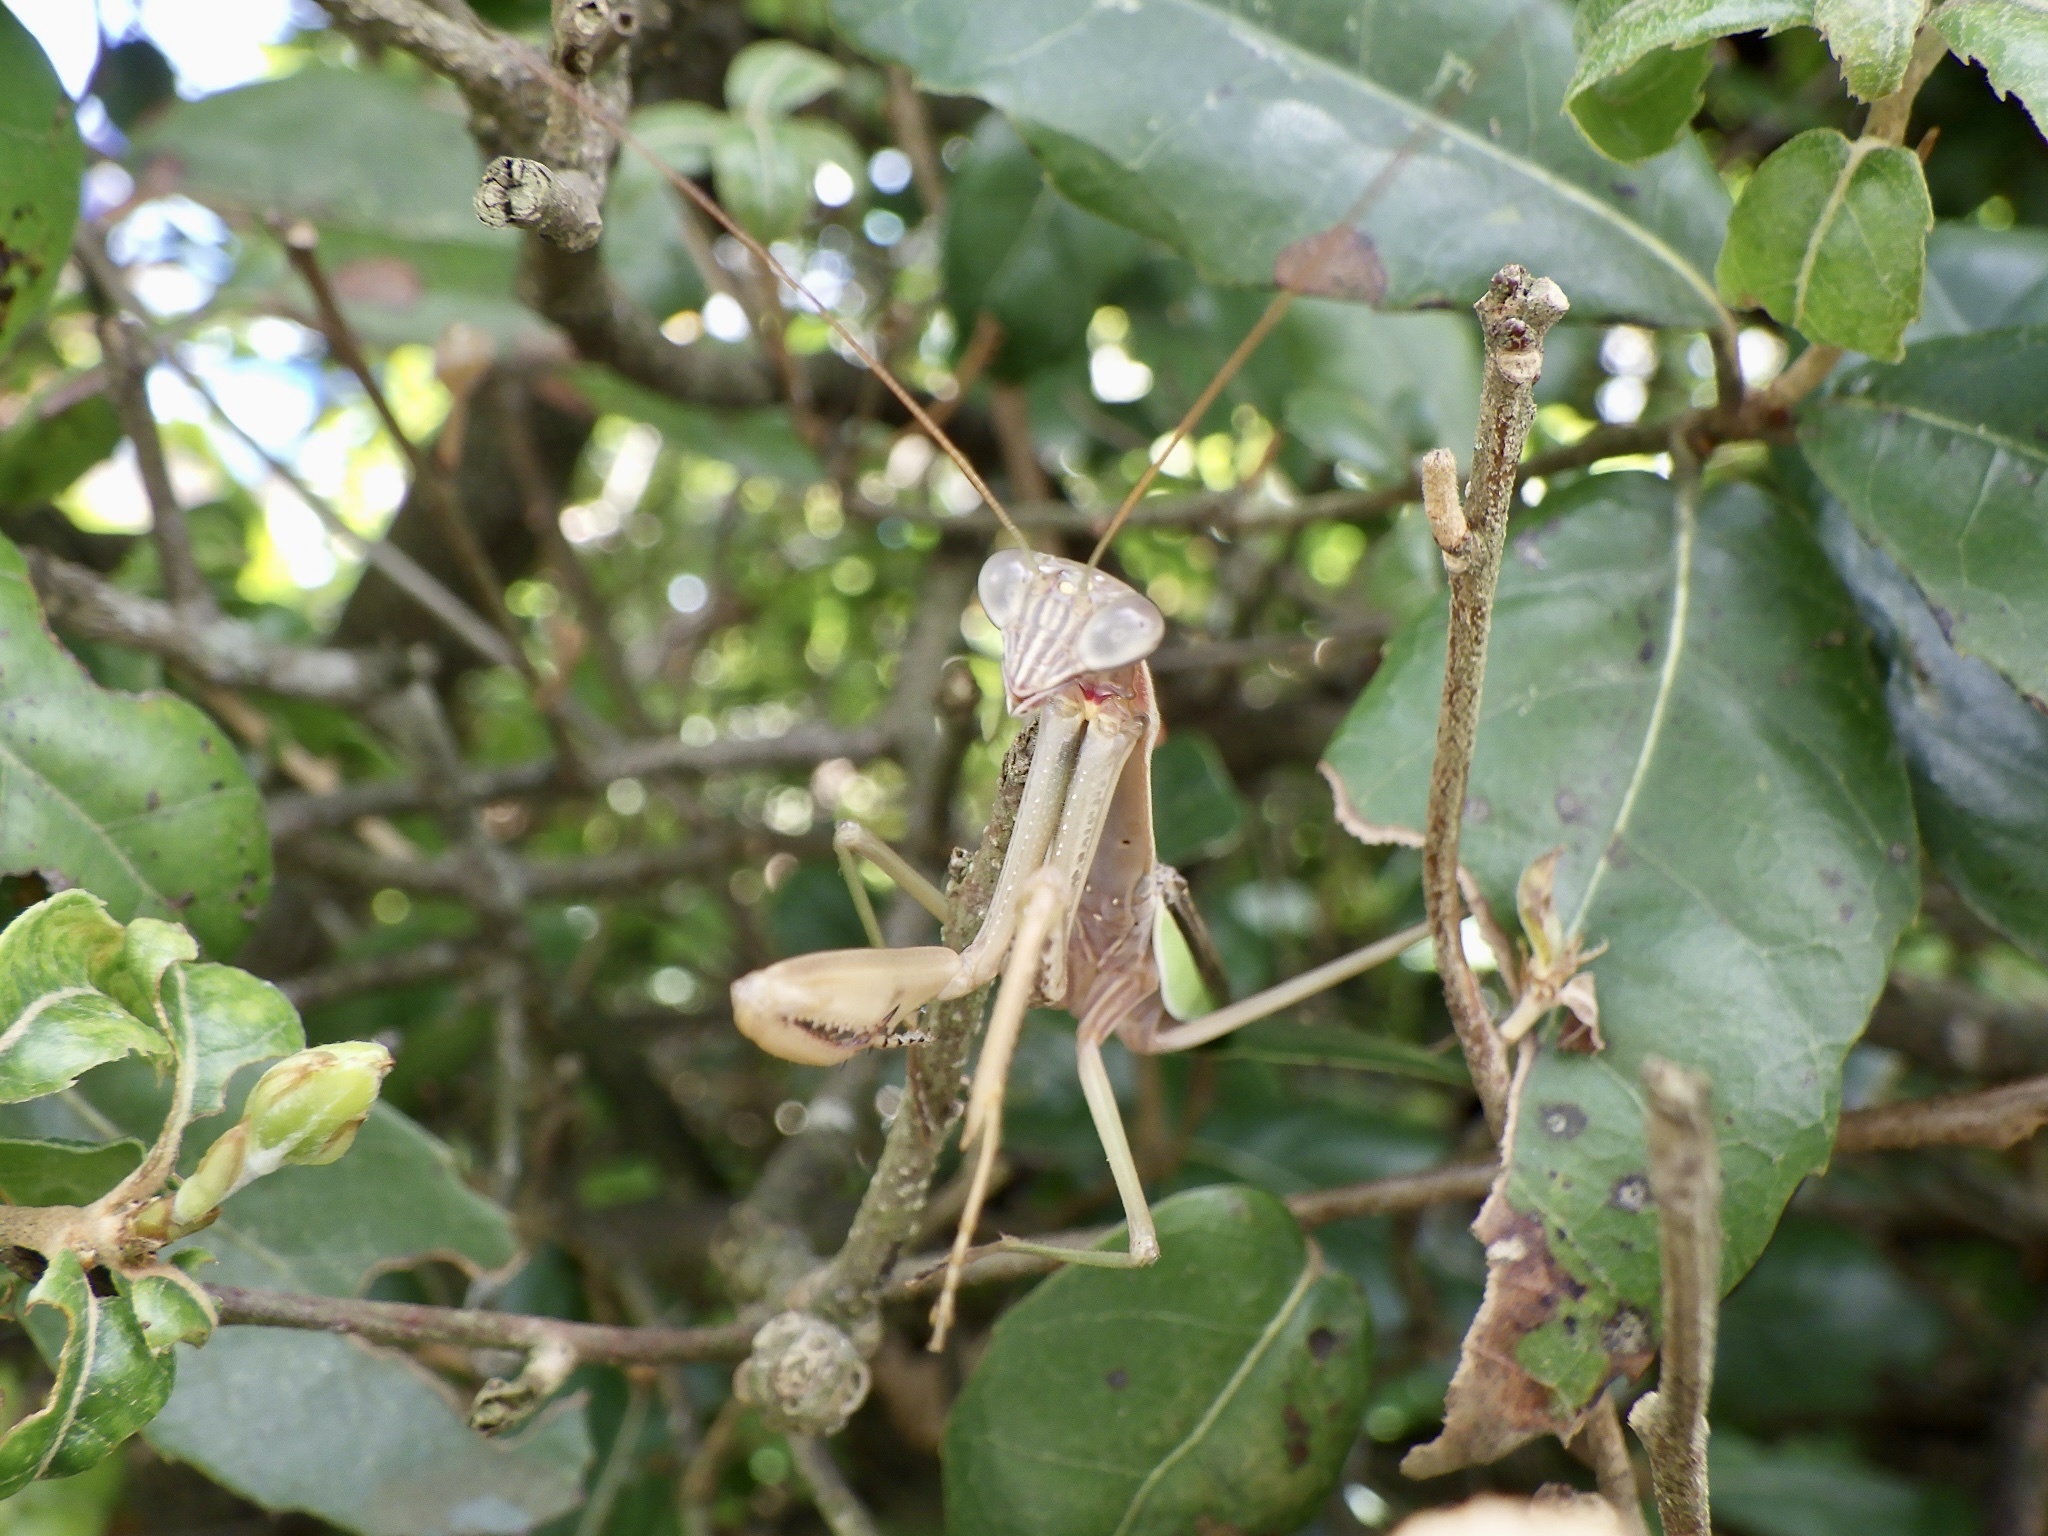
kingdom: Animalia
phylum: Arthropoda
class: Insecta
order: Mantodea
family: Mantidae
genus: Tenodera
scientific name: Tenodera sinensis
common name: Chinese mantis
